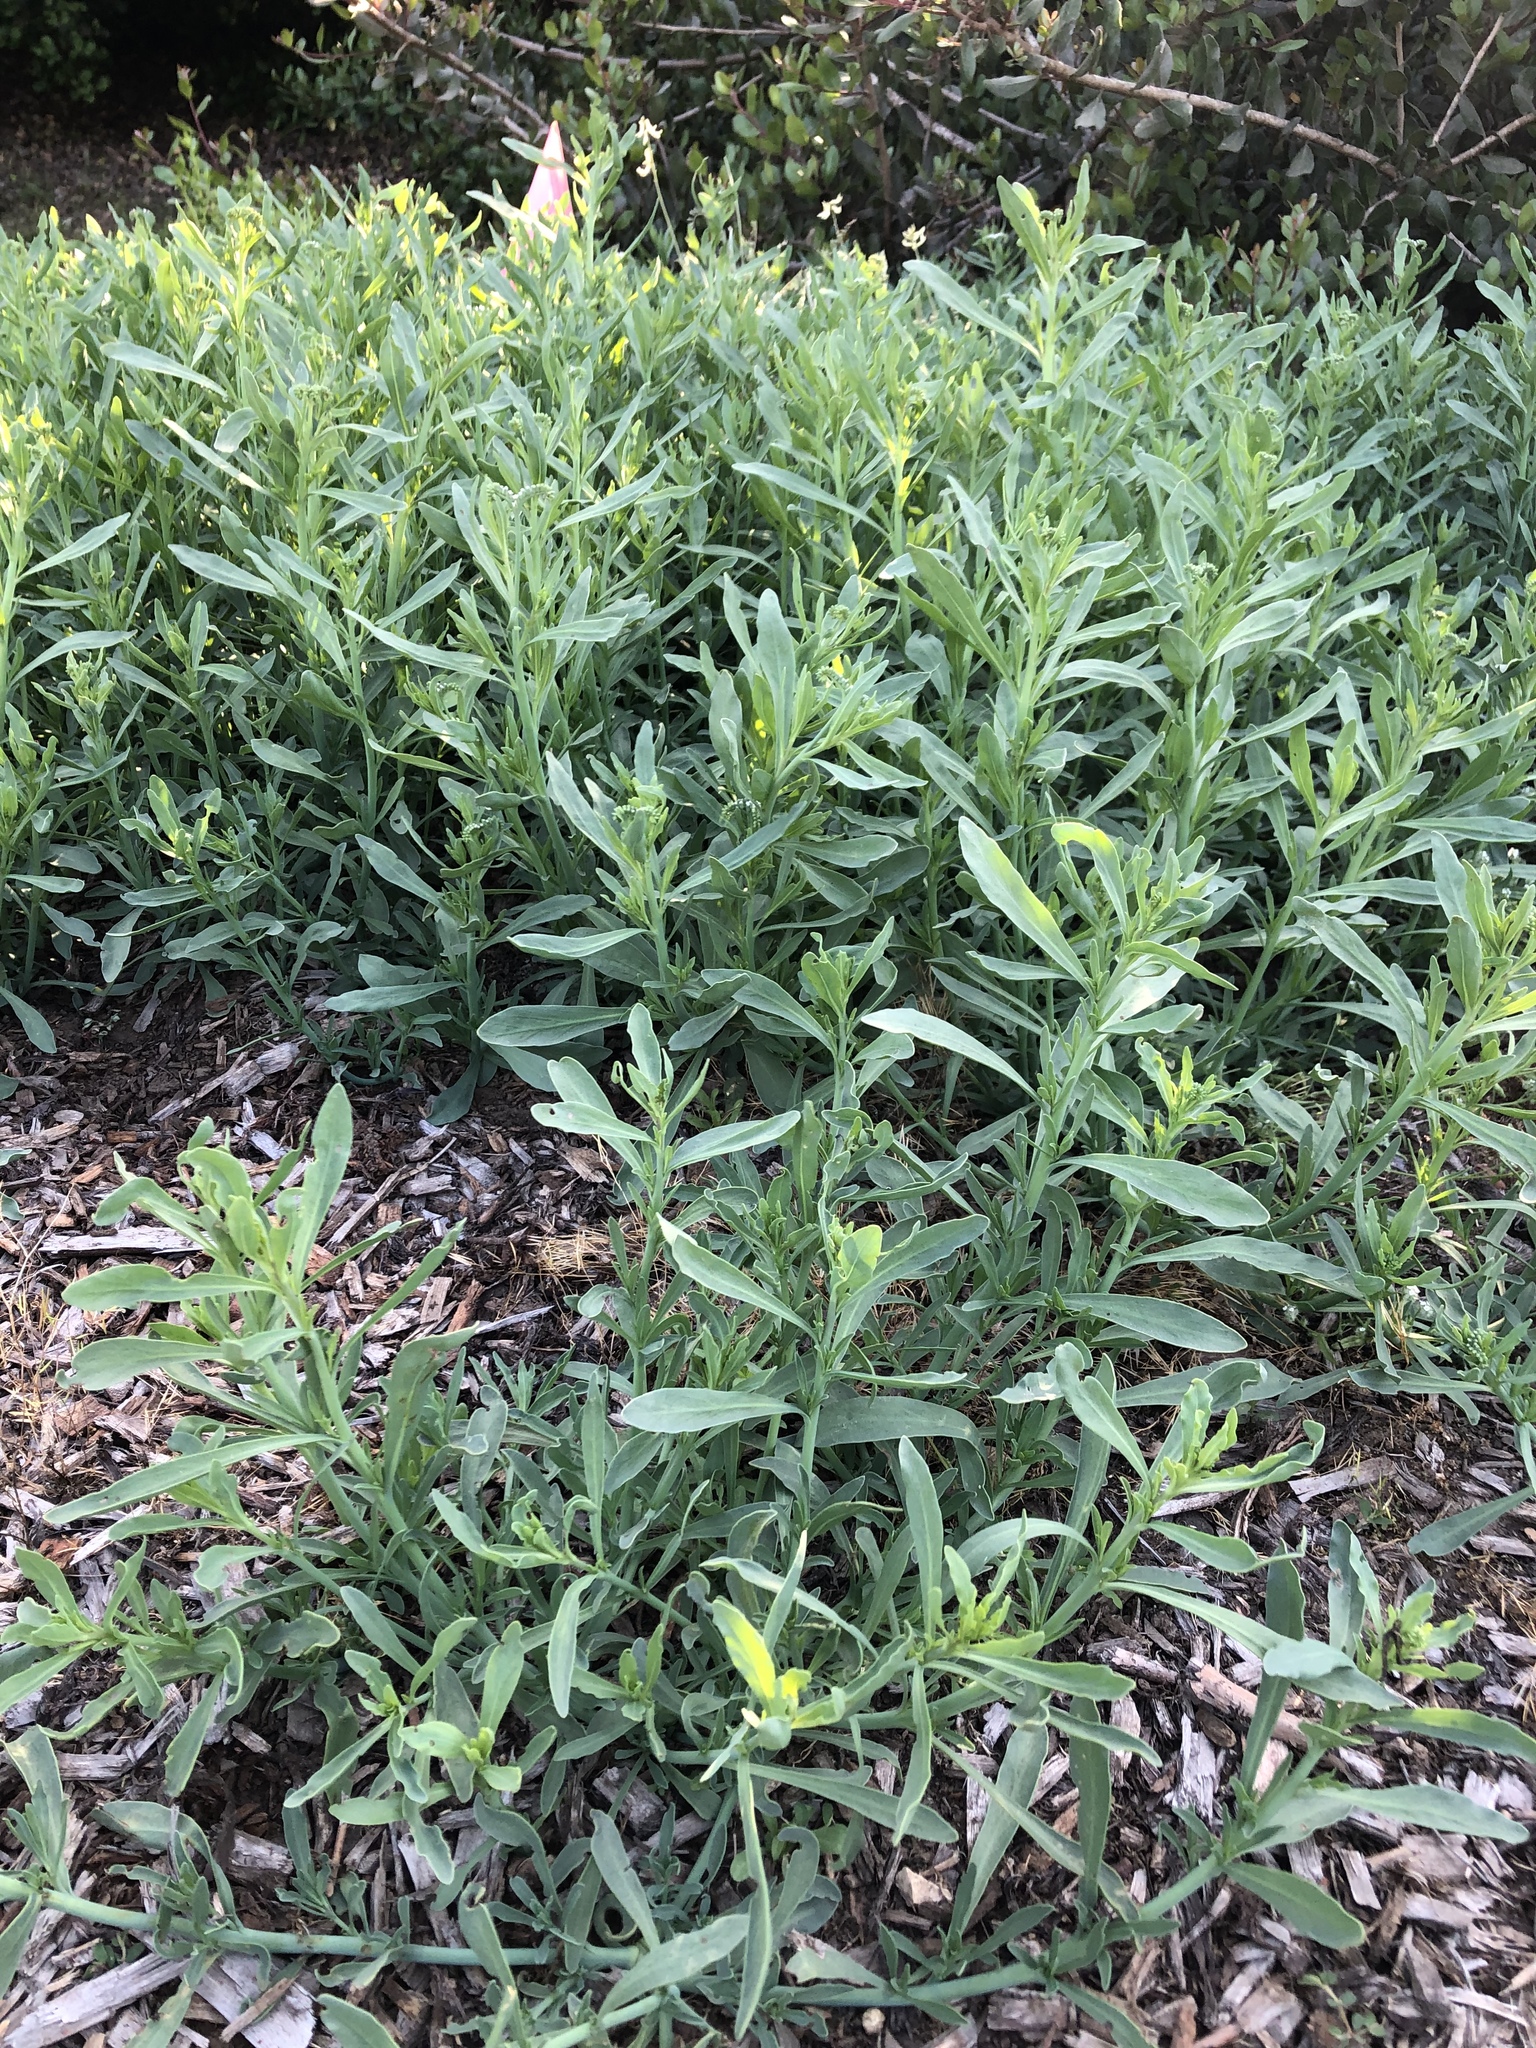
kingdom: Plantae
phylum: Tracheophyta
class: Magnoliopsida
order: Boraginales
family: Heliotropiaceae
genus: Heliotropium
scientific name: Heliotropium curassavicum
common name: Seaside heliotrope
